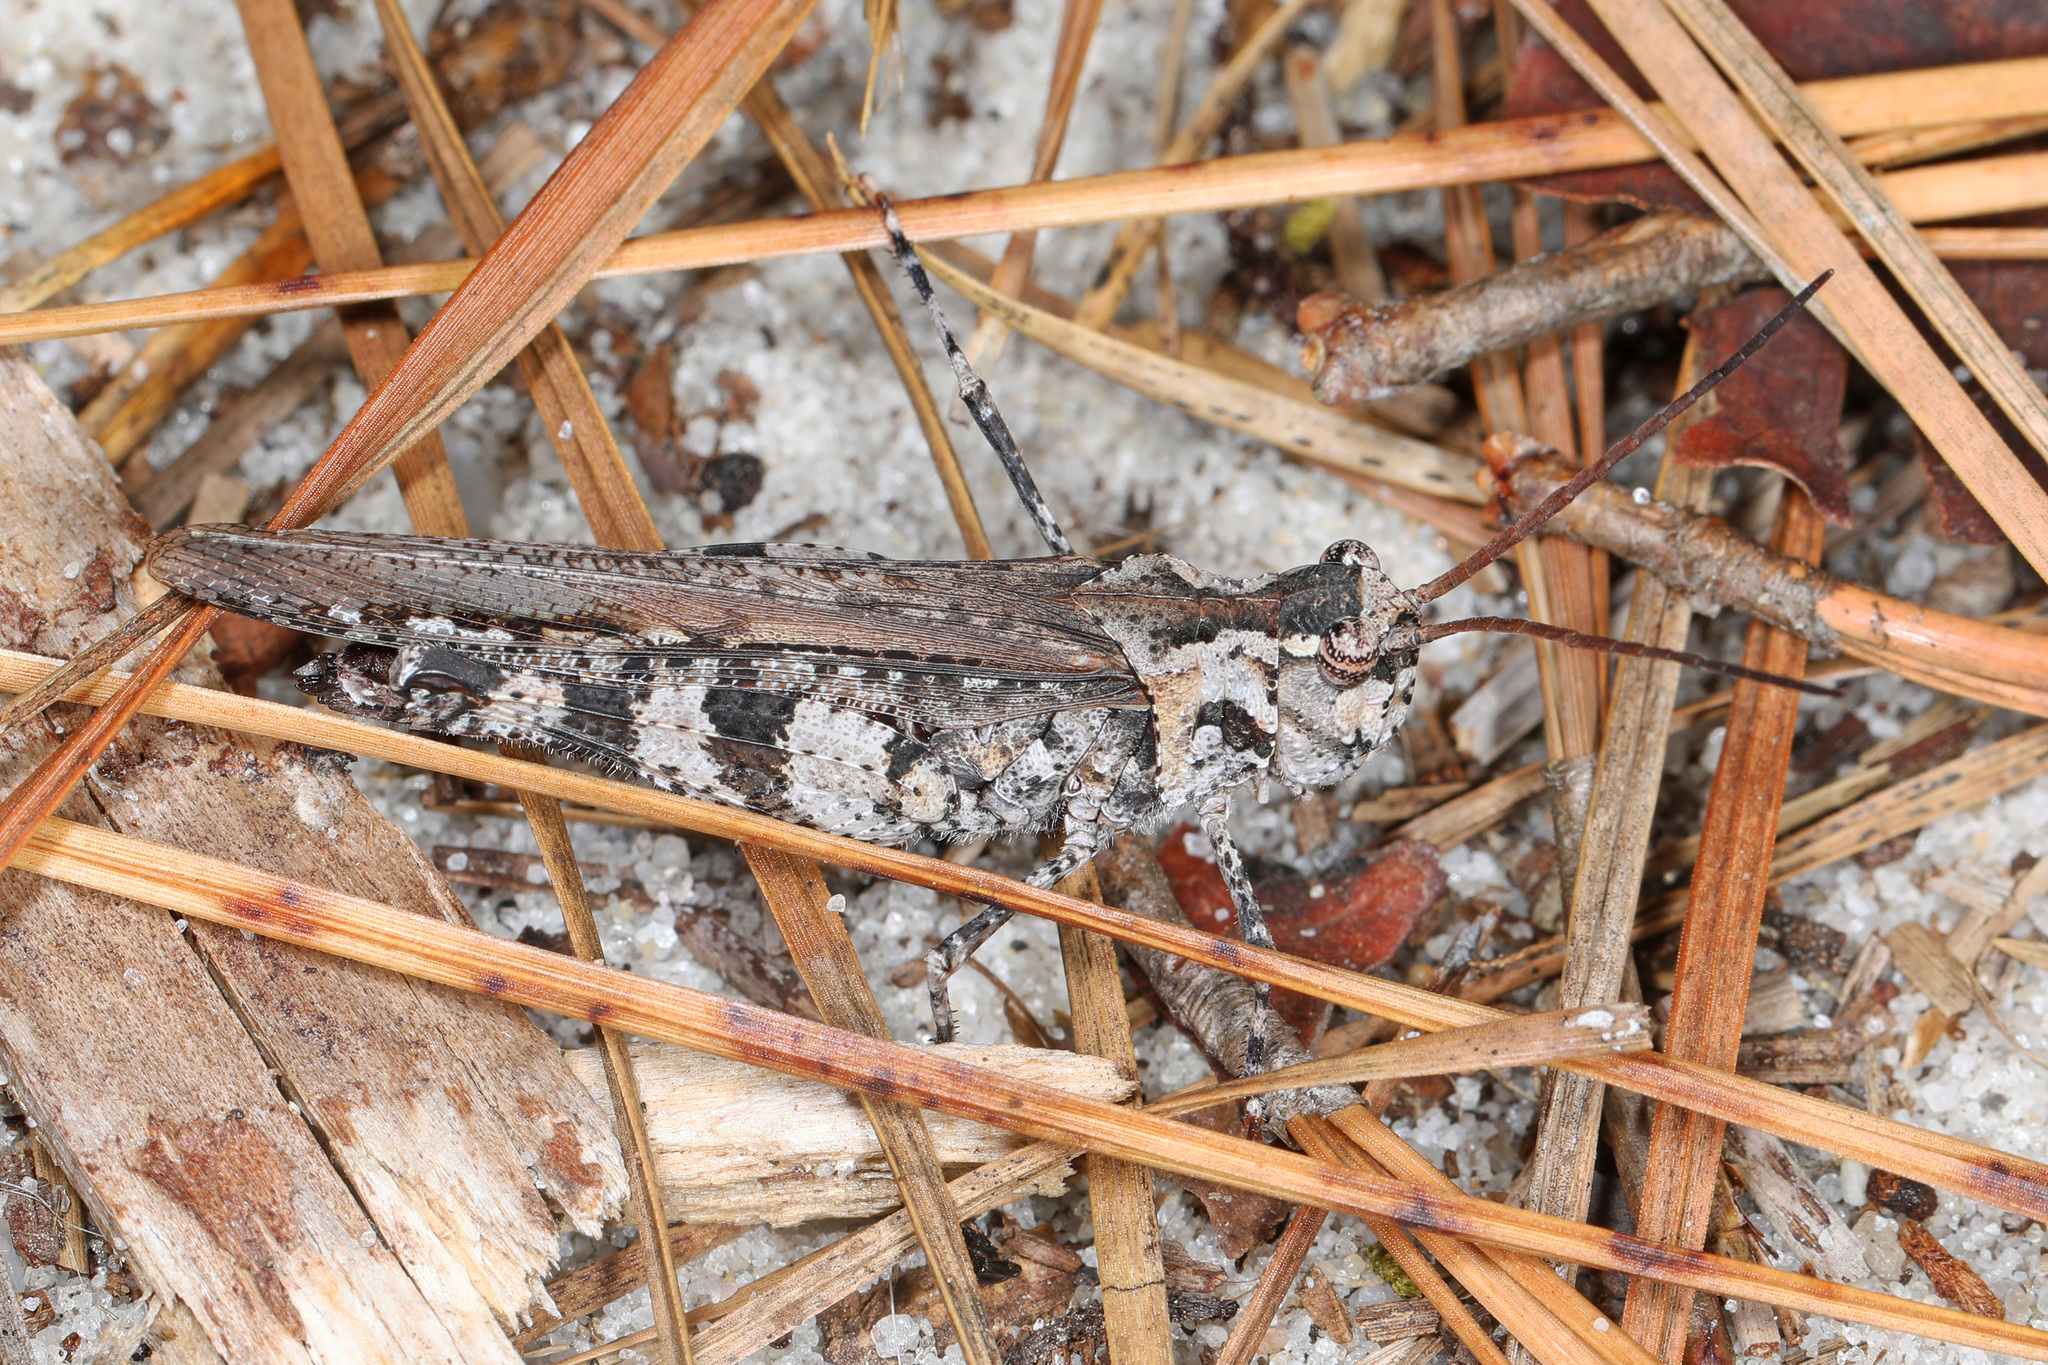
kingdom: Animalia
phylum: Arthropoda
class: Insecta
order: Orthoptera
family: Acrididae
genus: Psinidia
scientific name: Psinidia fenestralis
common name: Long-horned locust
